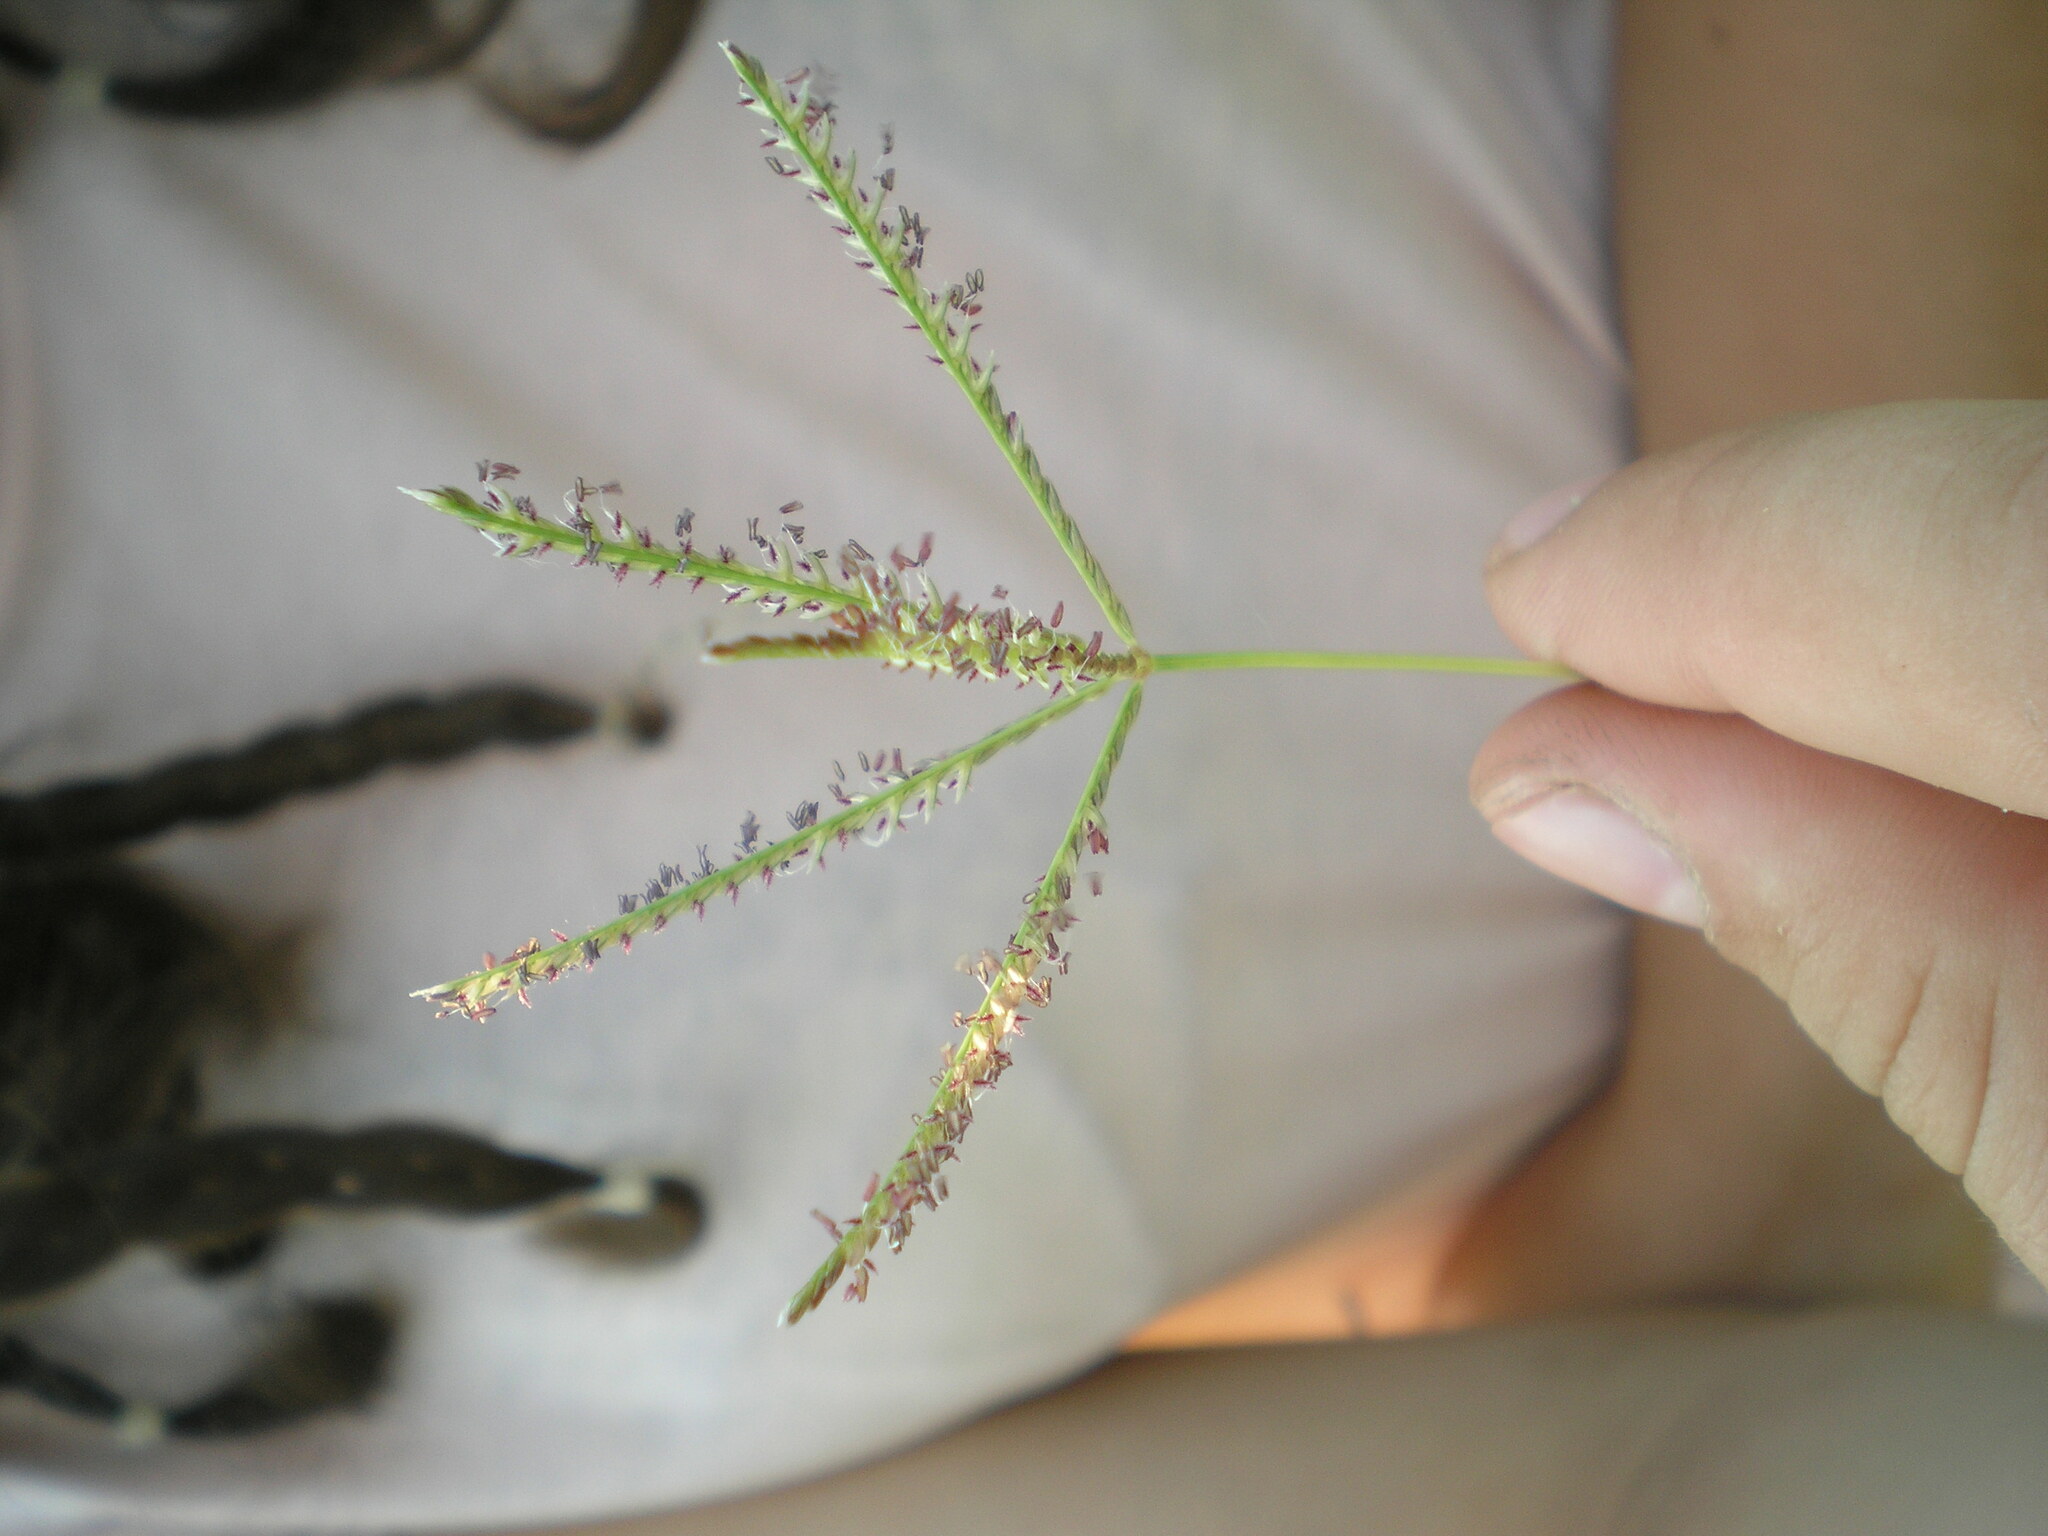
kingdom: Plantae
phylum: Tracheophyta
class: Liliopsida
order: Poales
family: Poaceae
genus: Cynodon
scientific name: Cynodon dactylon
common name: Bermuda grass
